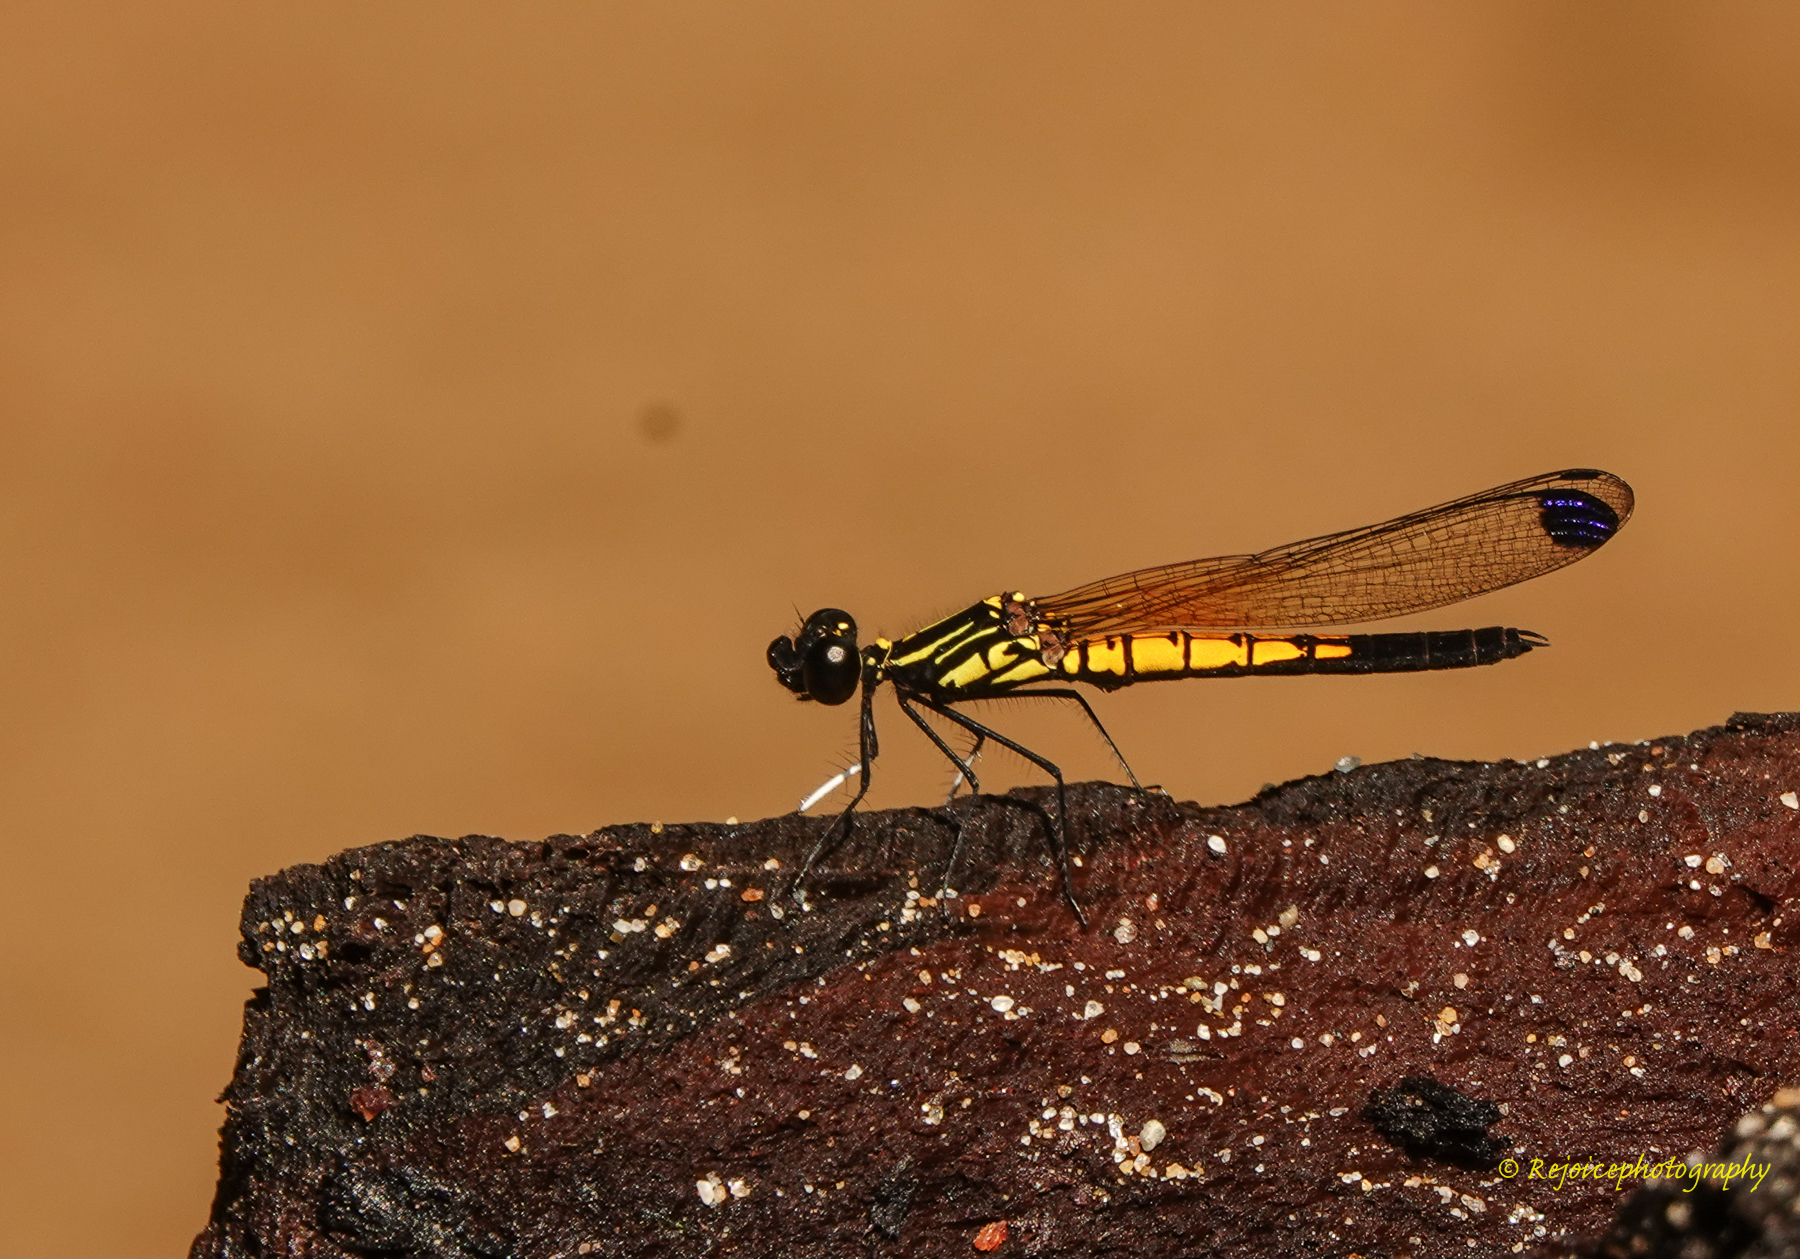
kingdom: Animalia
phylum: Arthropoda
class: Insecta
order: Odonata
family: Chlorocyphidae
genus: Libellago
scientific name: Libellago lineata
